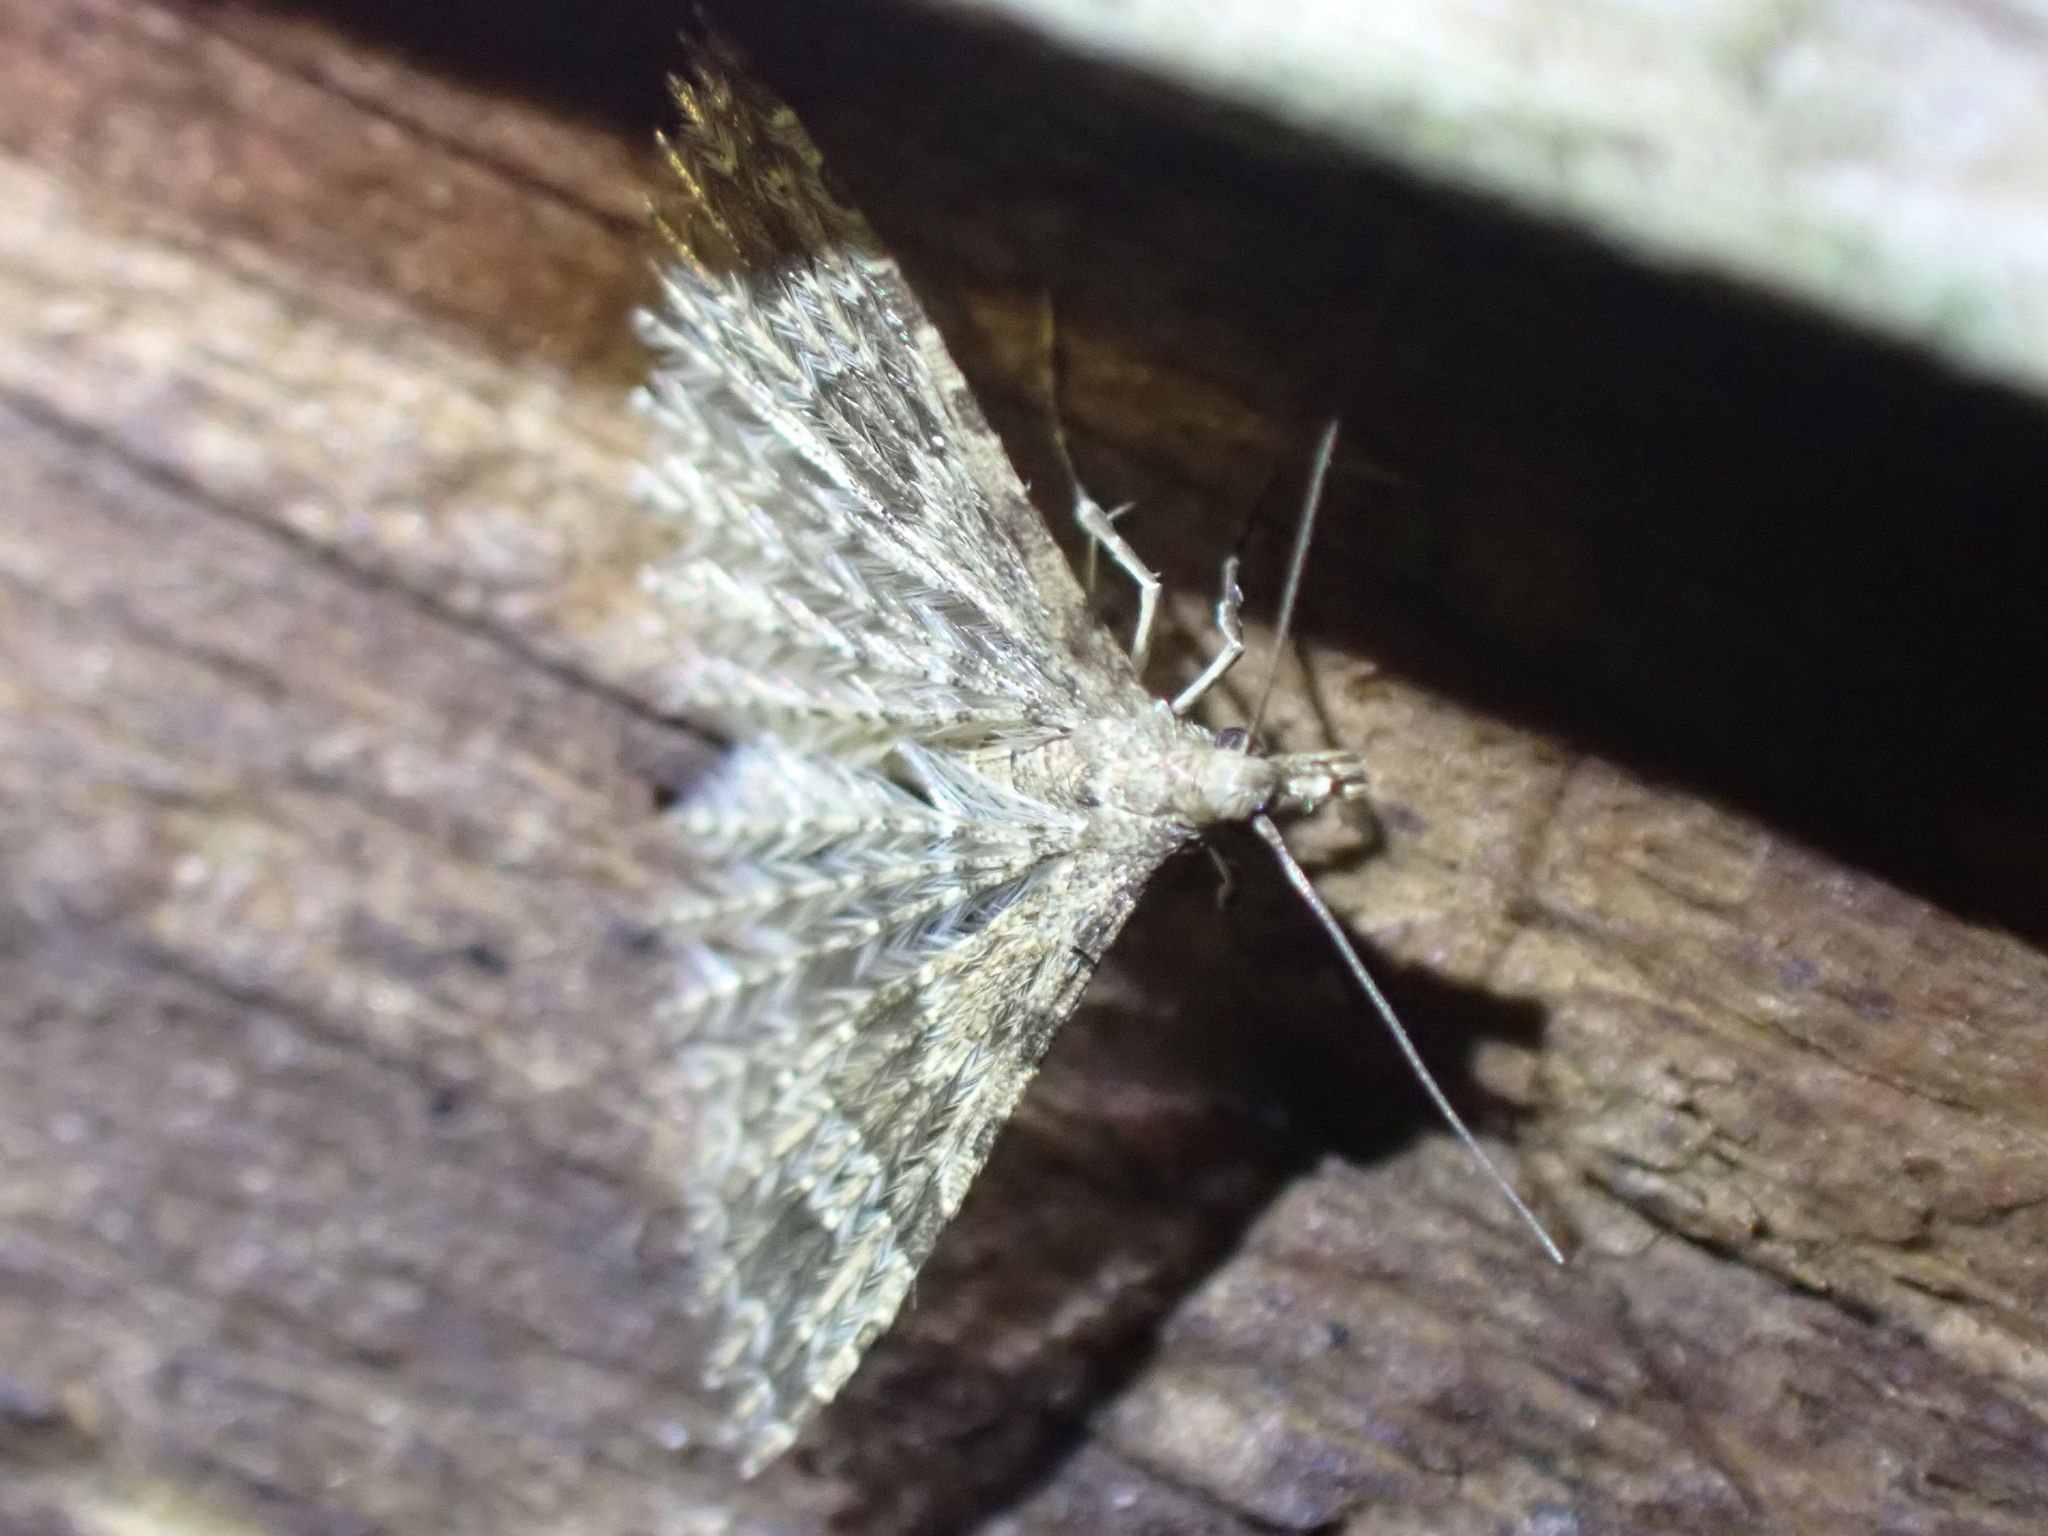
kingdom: Animalia
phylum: Arthropoda
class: Insecta
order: Lepidoptera
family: Alucitidae
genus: Alucita
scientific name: Alucita hexadactyla
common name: Twenty-plume moth
